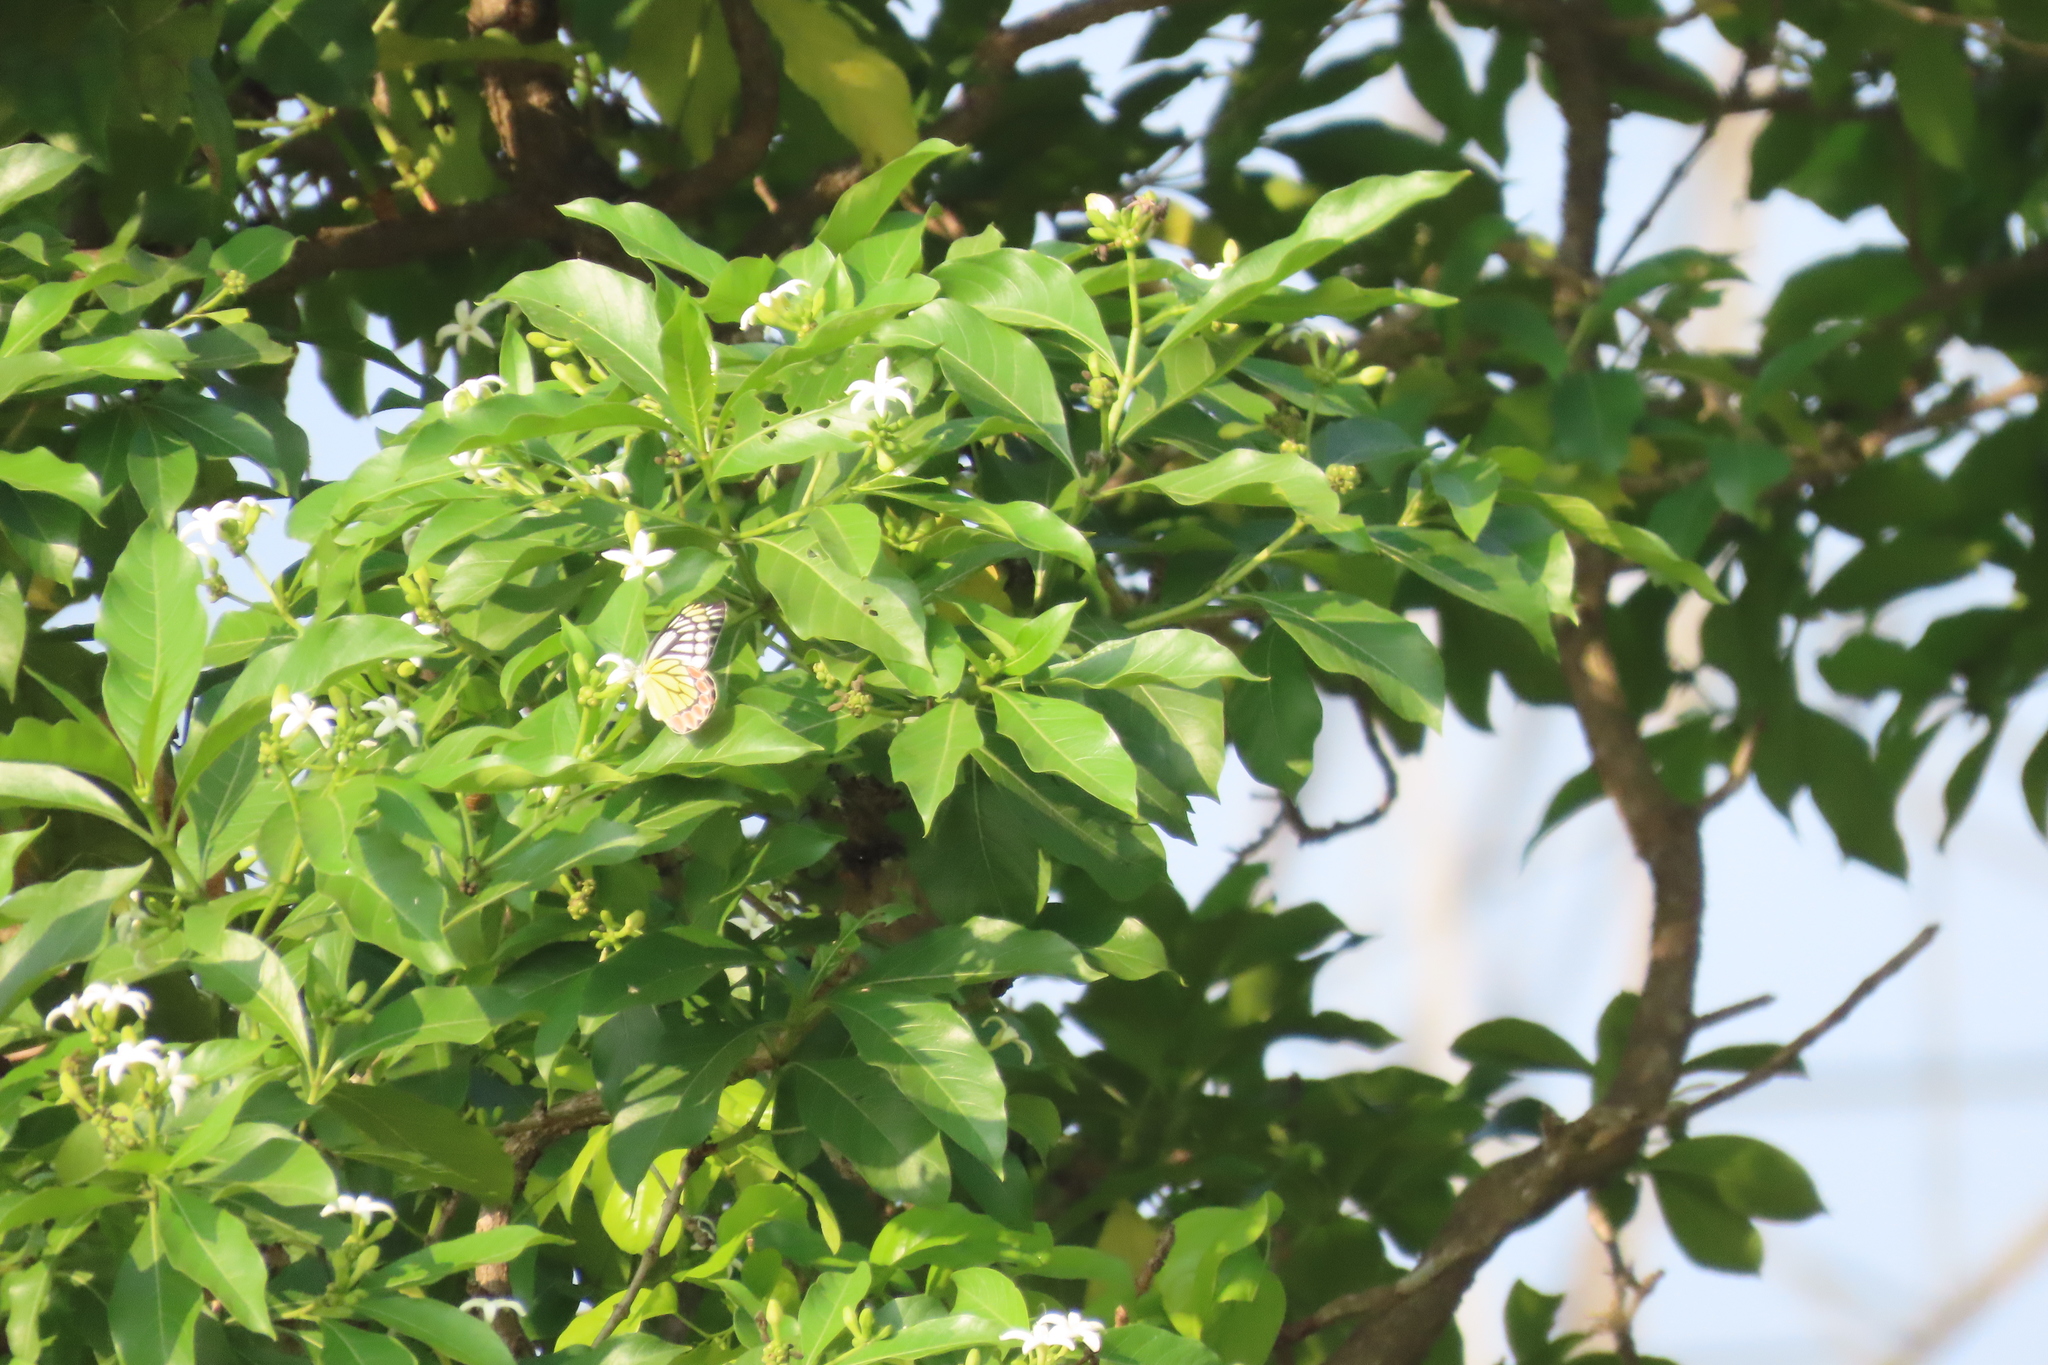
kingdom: Animalia
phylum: Arthropoda
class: Insecta
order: Lepidoptera
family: Pieridae
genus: Delias
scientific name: Delias eucharis
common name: Common jezebel
